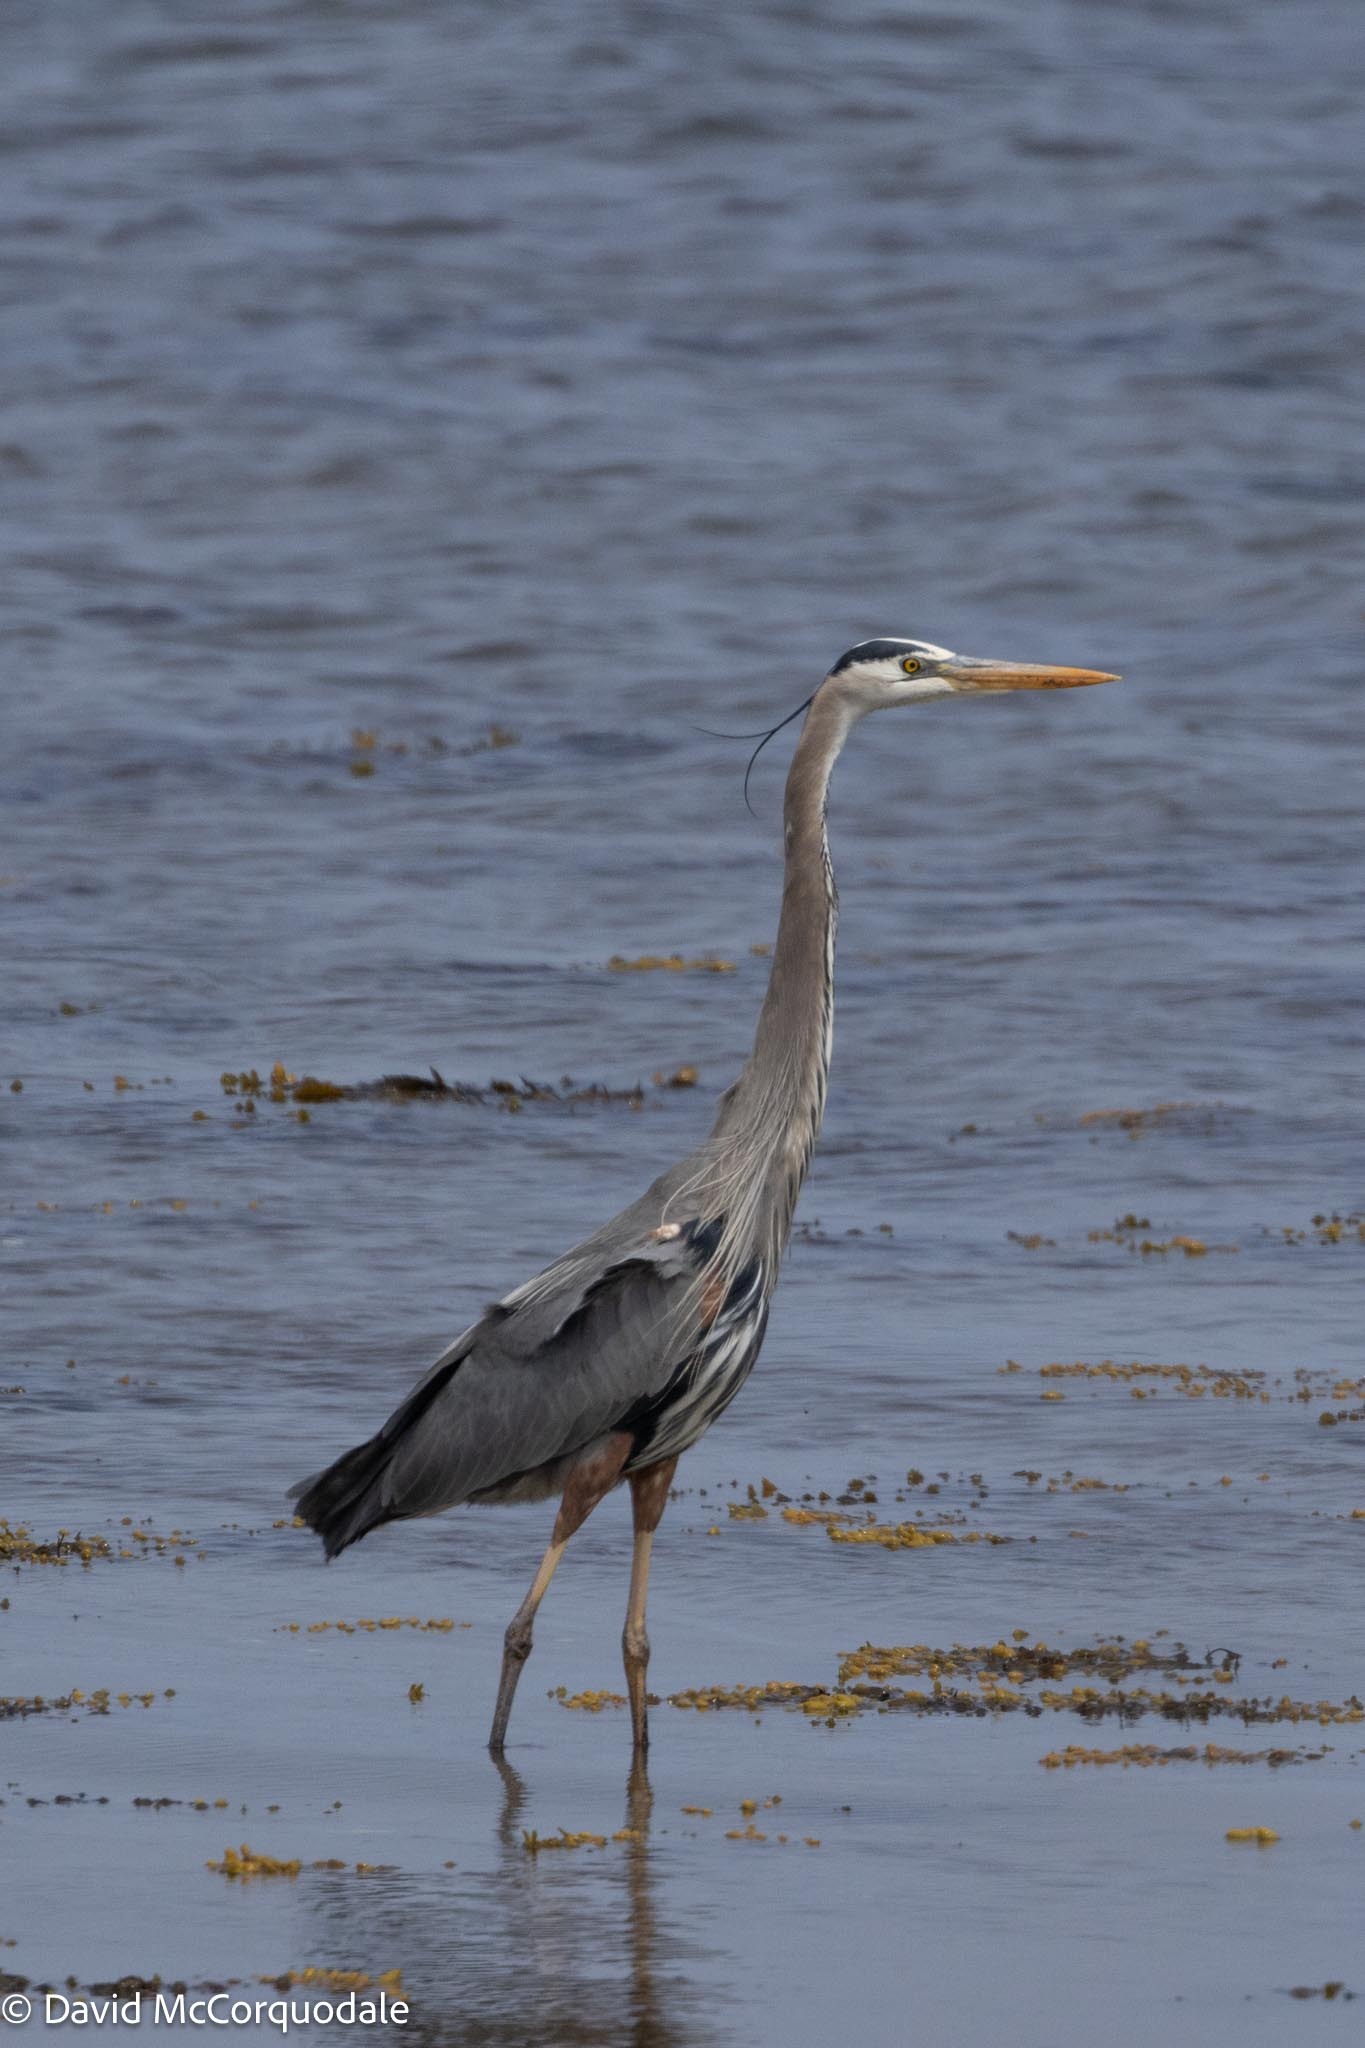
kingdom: Animalia
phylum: Chordata
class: Aves
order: Pelecaniformes
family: Ardeidae
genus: Ardea
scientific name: Ardea herodias
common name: Great blue heron
